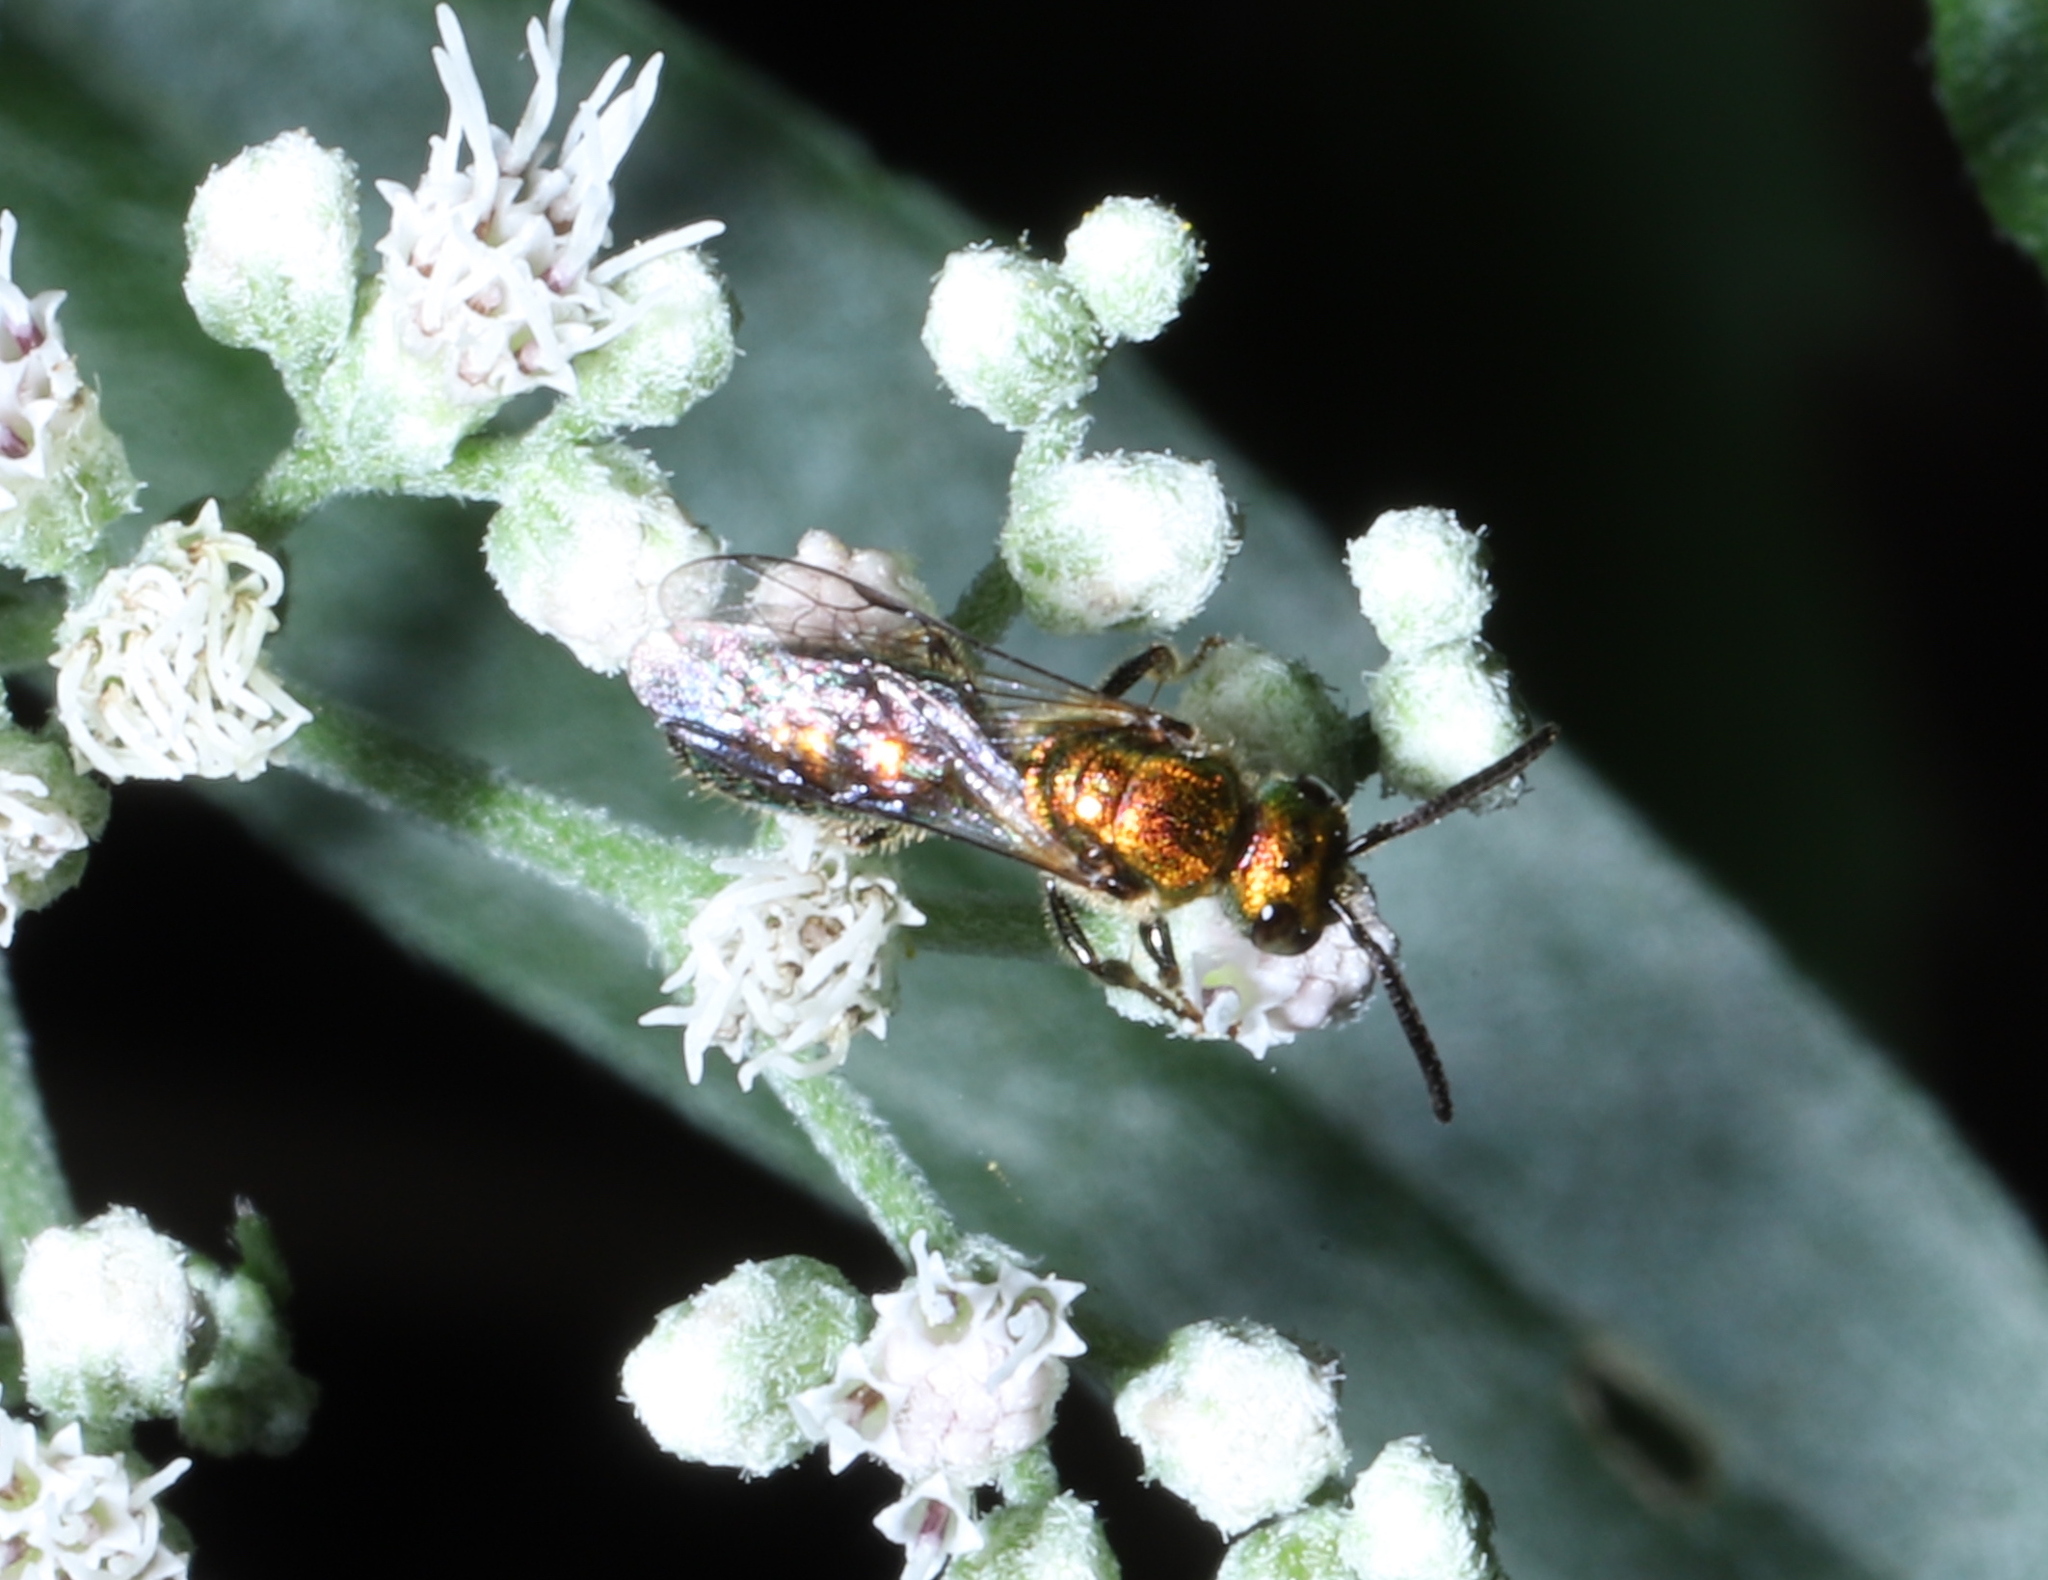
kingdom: Animalia
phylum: Arthropoda
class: Insecta
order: Hymenoptera
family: Halictidae
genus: Augochlora
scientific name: Augochlora pura
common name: Pure green sweat bee
